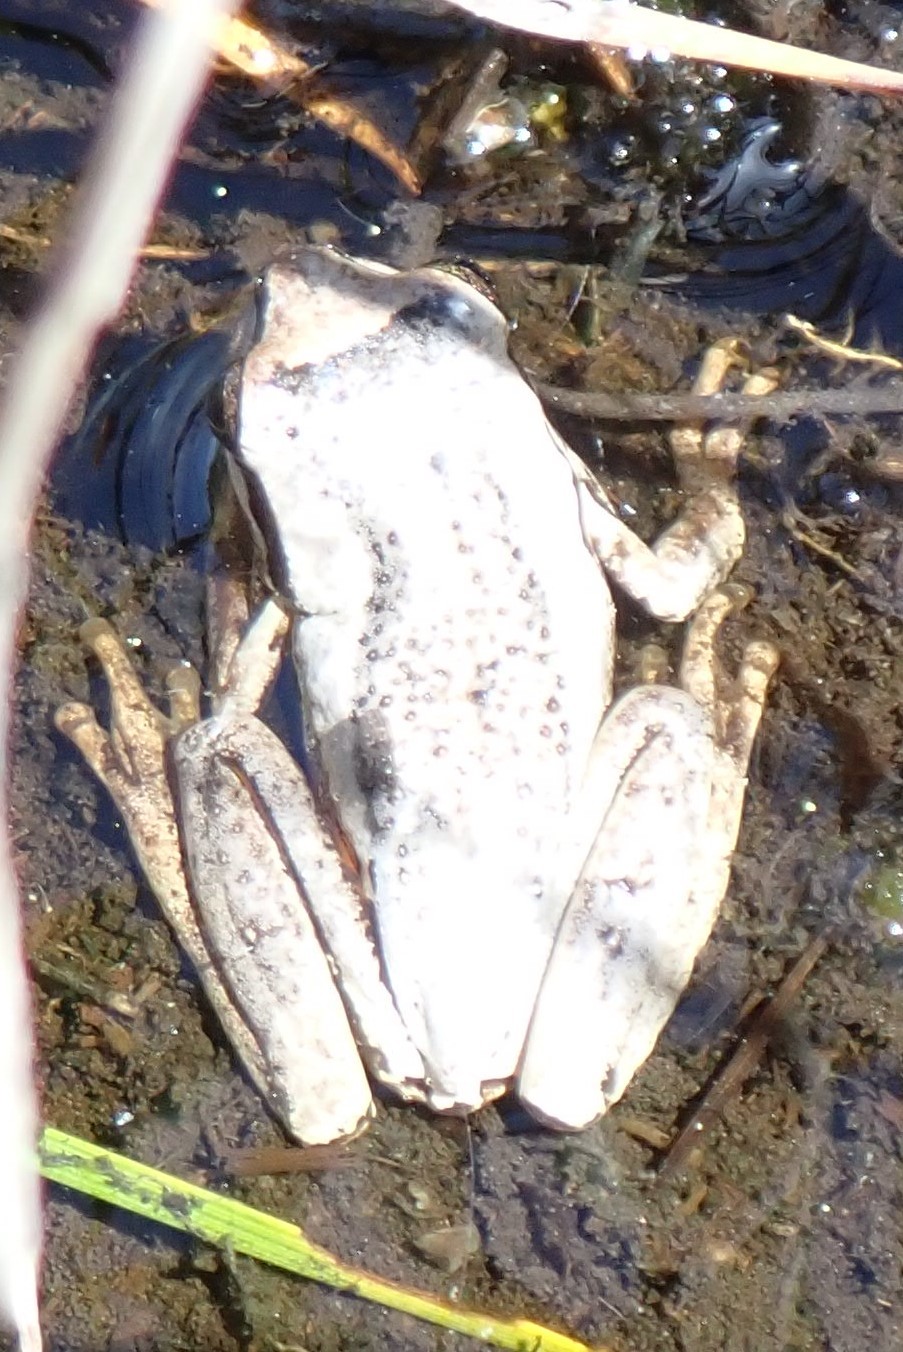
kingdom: Animalia
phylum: Chordata
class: Amphibia
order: Anura
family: Pelodryadidae
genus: Litoria
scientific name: Litoria ewingii
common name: Southern brown tree frog
